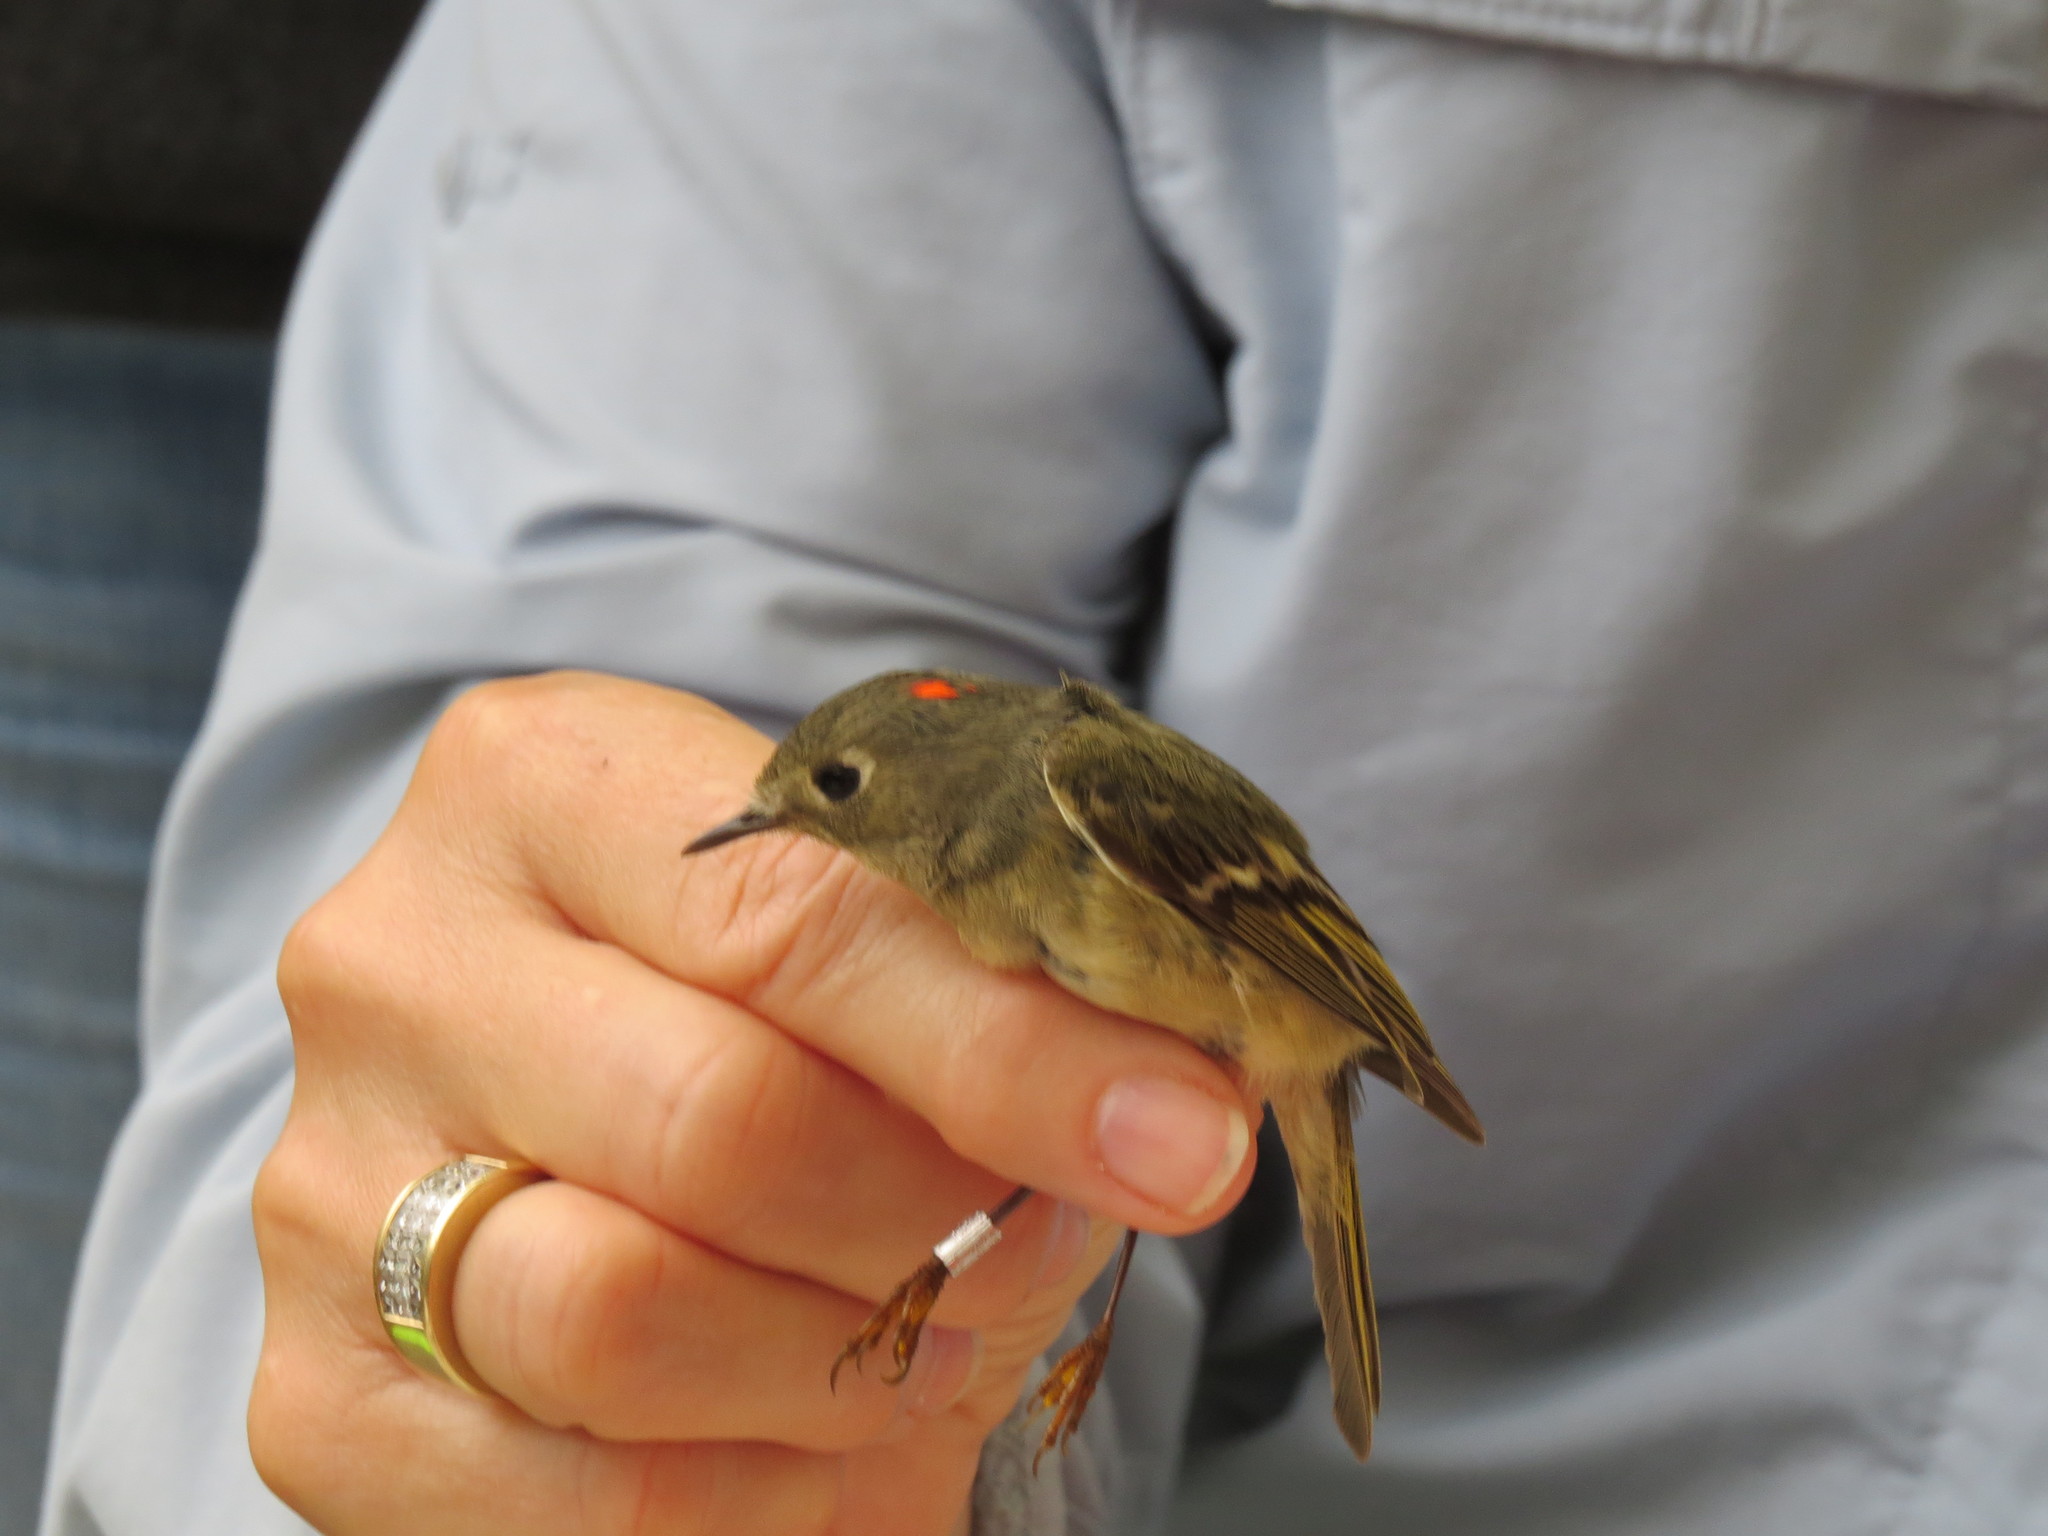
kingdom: Animalia
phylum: Chordata
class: Aves
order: Passeriformes
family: Regulidae
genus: Regulus
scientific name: Regulus calendula
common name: Ruby-crowned kinglet
